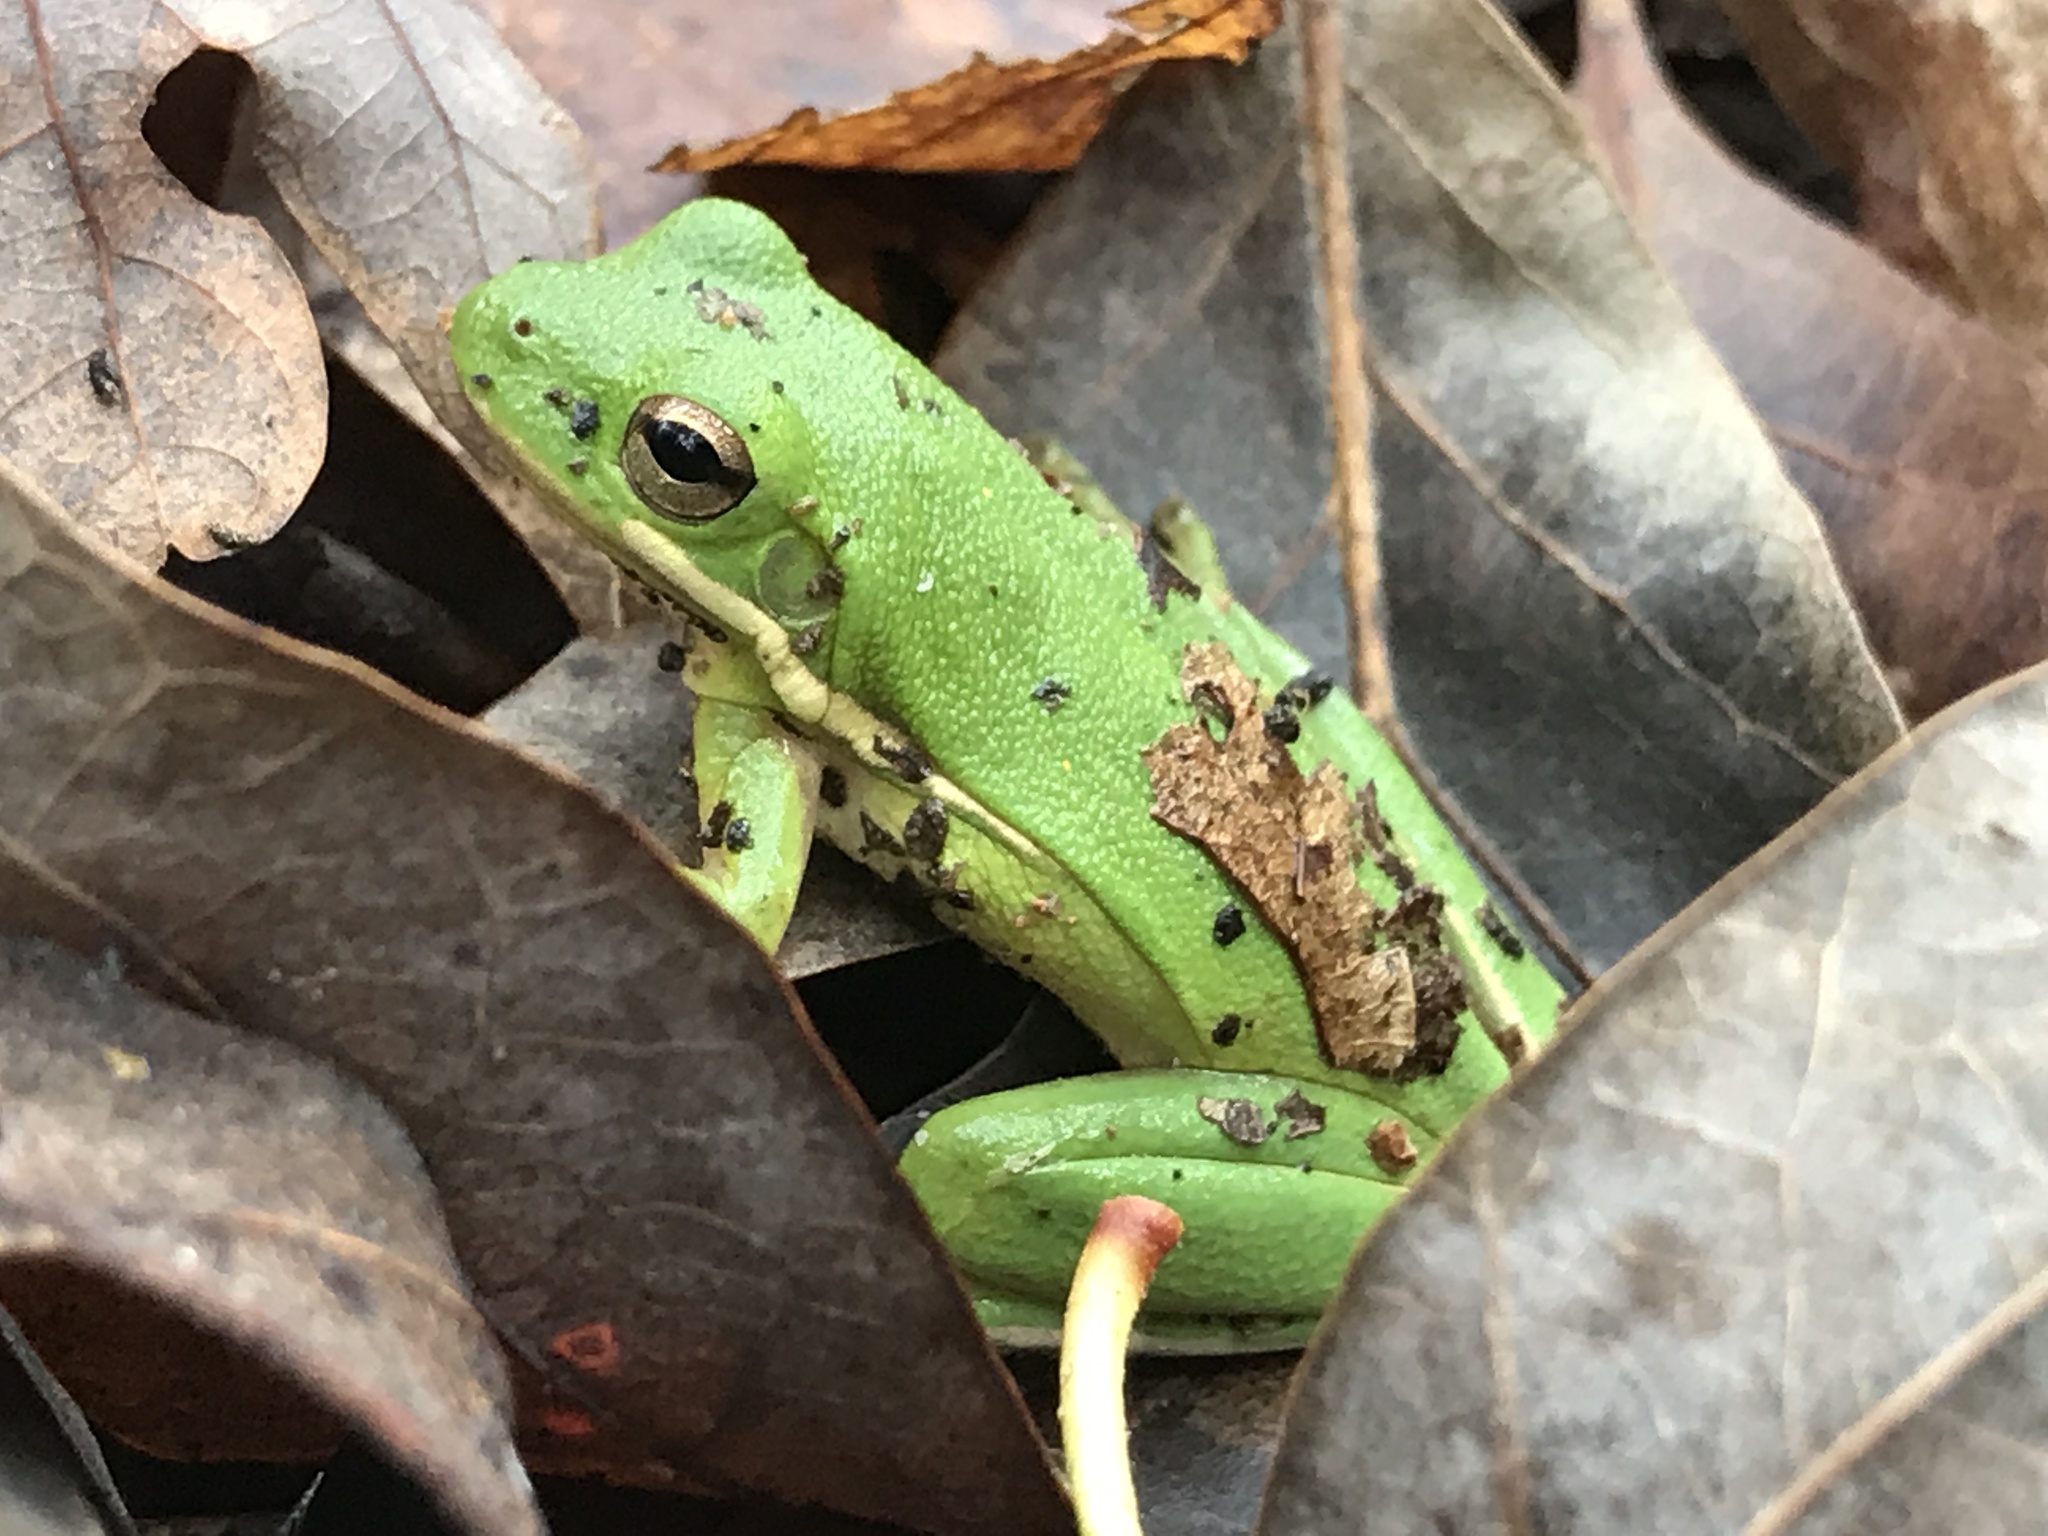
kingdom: Animalia
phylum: Chordata
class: Amphibia
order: Anura
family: Hylidae
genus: Dryophytes
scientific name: Dryophytes cinereus
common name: Green treefrog
